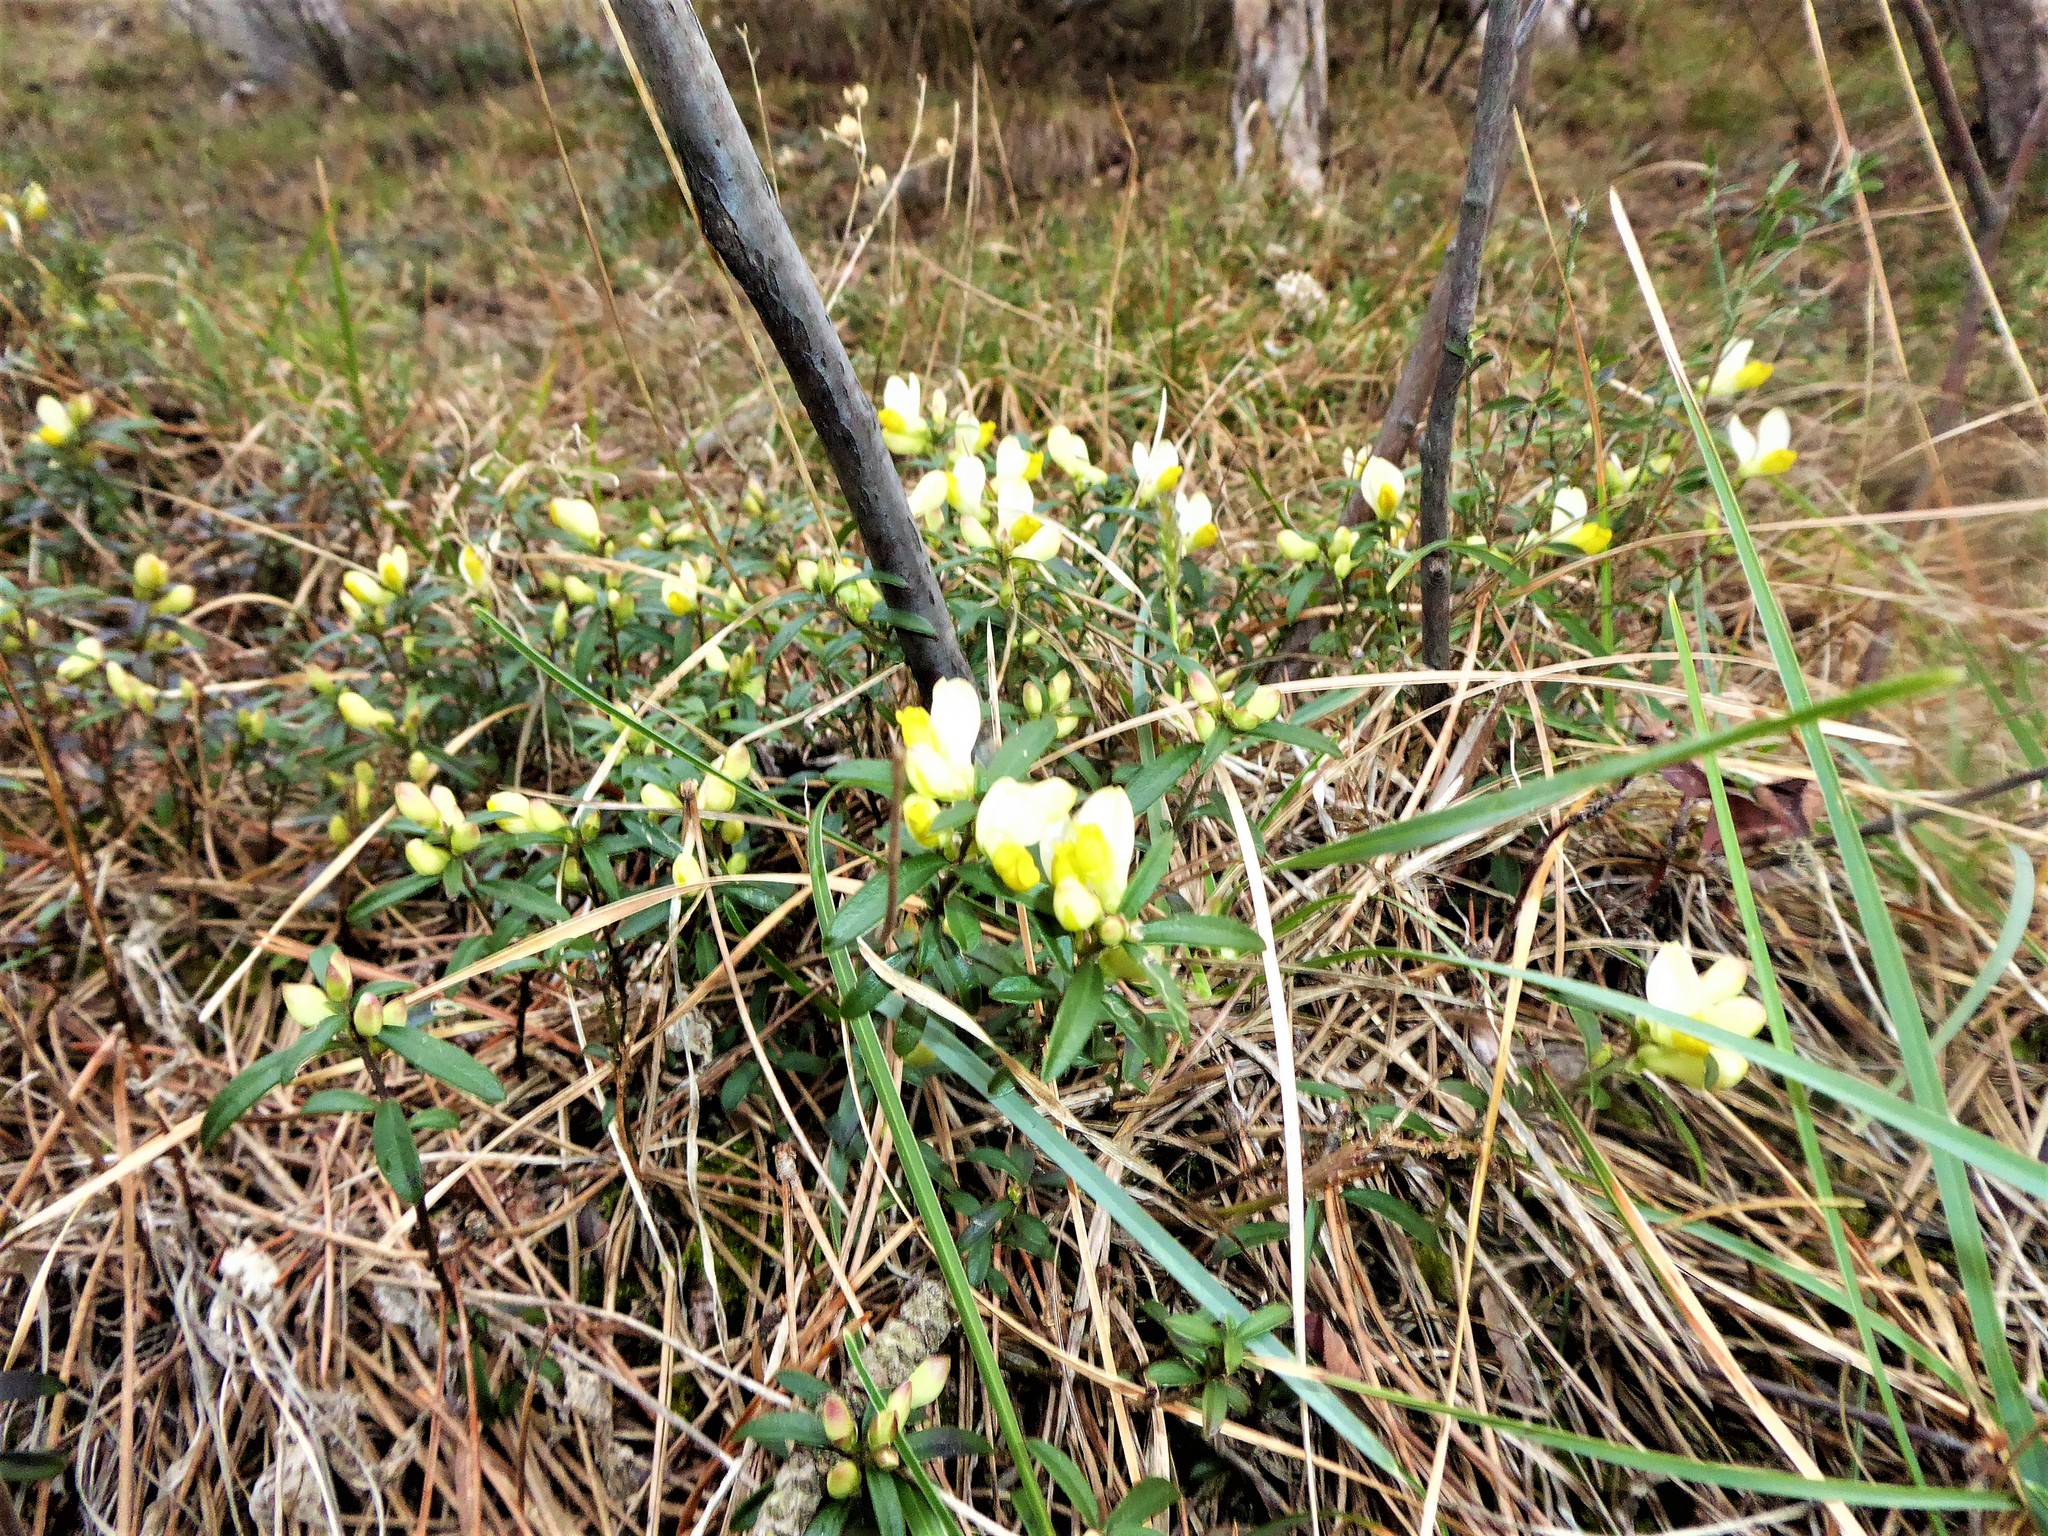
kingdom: Plantae
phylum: Tracheophyta
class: Magnoliopsida
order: Fabales
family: Polygalaceae
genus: Polygaloides
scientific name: Polygaloides chamaebuxus
